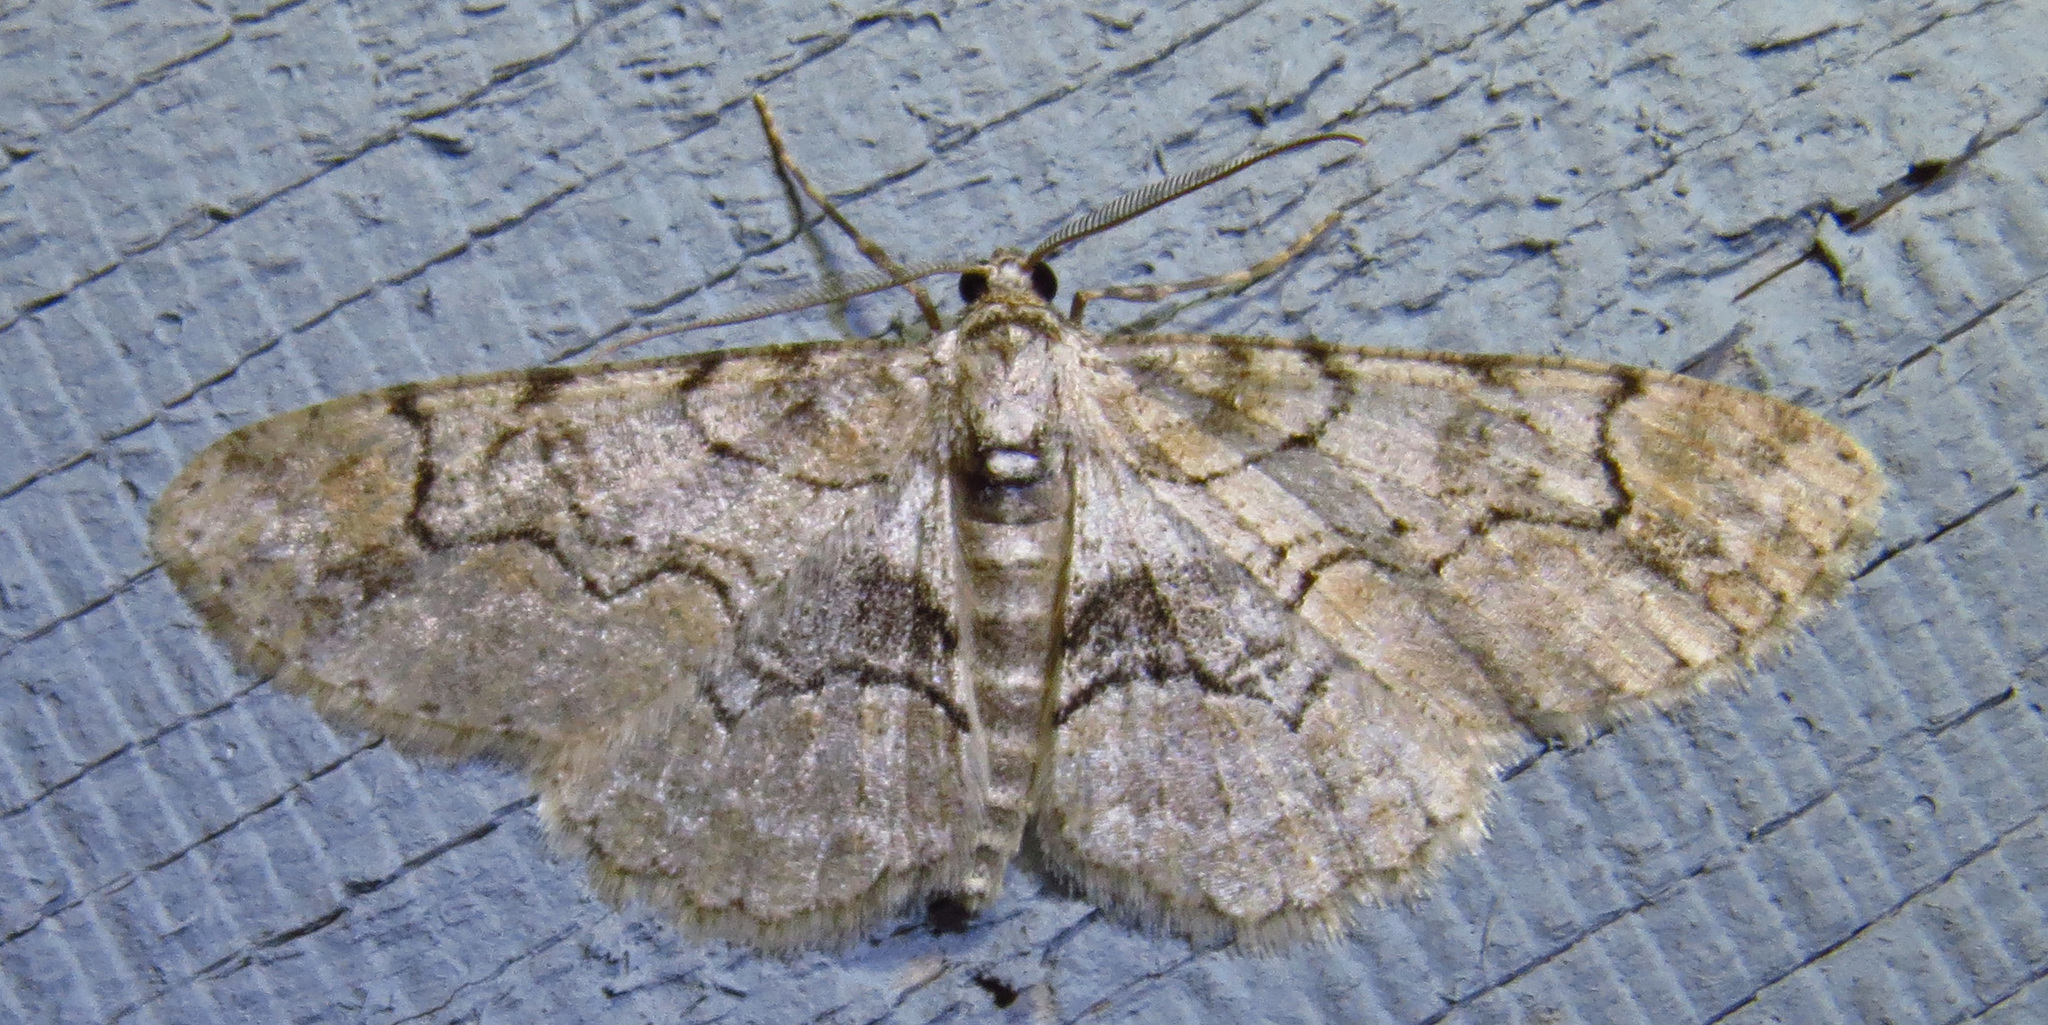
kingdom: Animalia
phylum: Arthropoda
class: Insecta
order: Lepidoptera
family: Geometridae
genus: Iridopsis
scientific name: Iridopsis larvaria
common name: Bent-line gray
